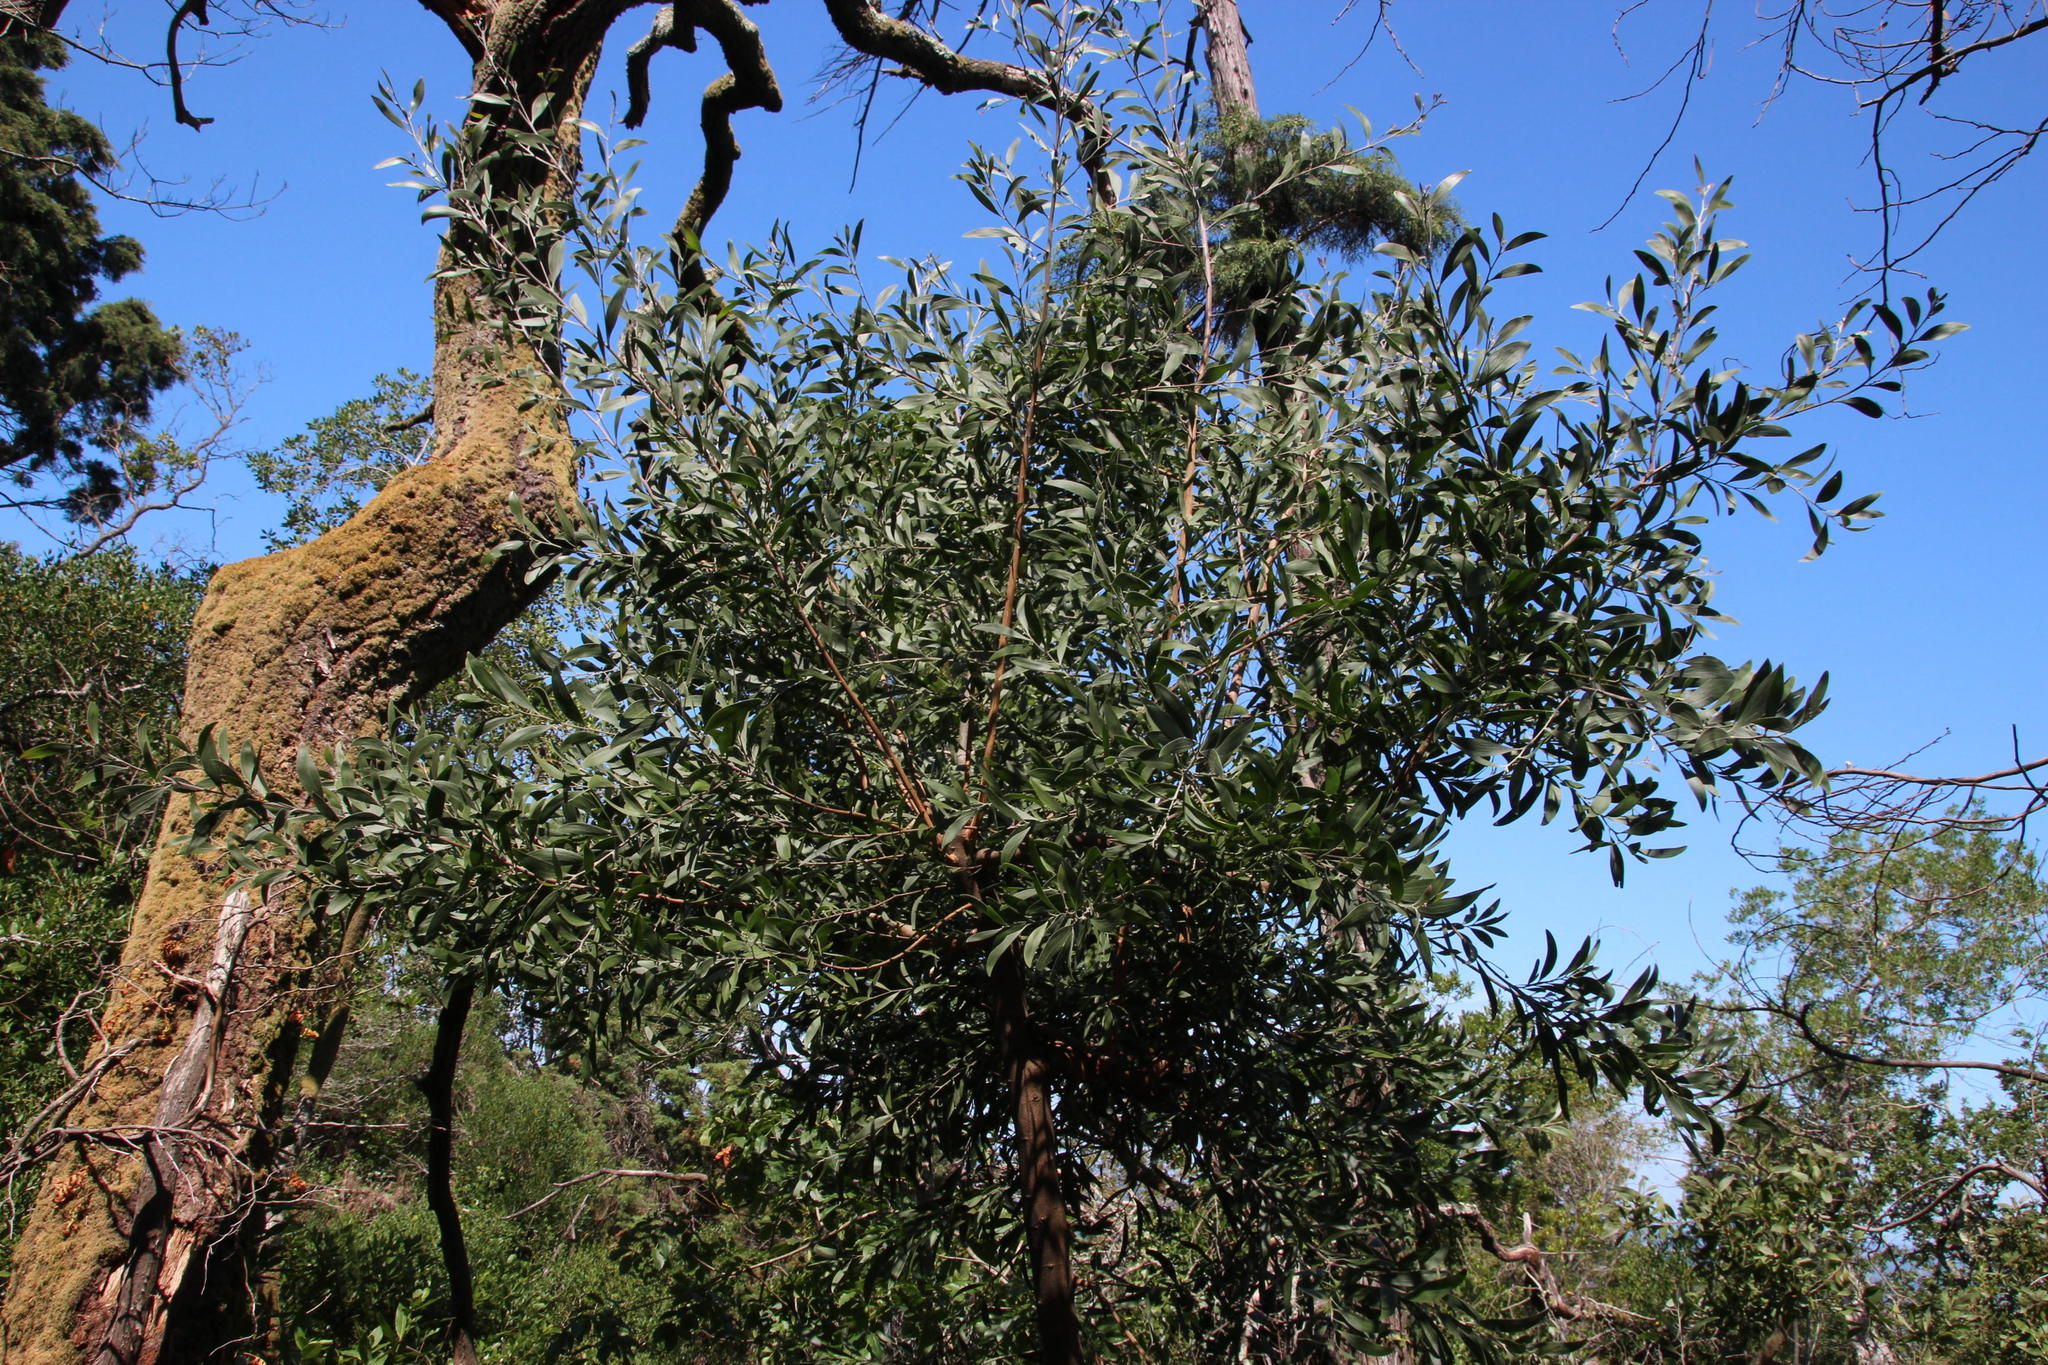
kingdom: Plantae
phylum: Tracheophyta
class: Magnoliopsida
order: Fabales
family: Fabaceae
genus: Acacia
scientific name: Acacia melanoxylon
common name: Blackwood
